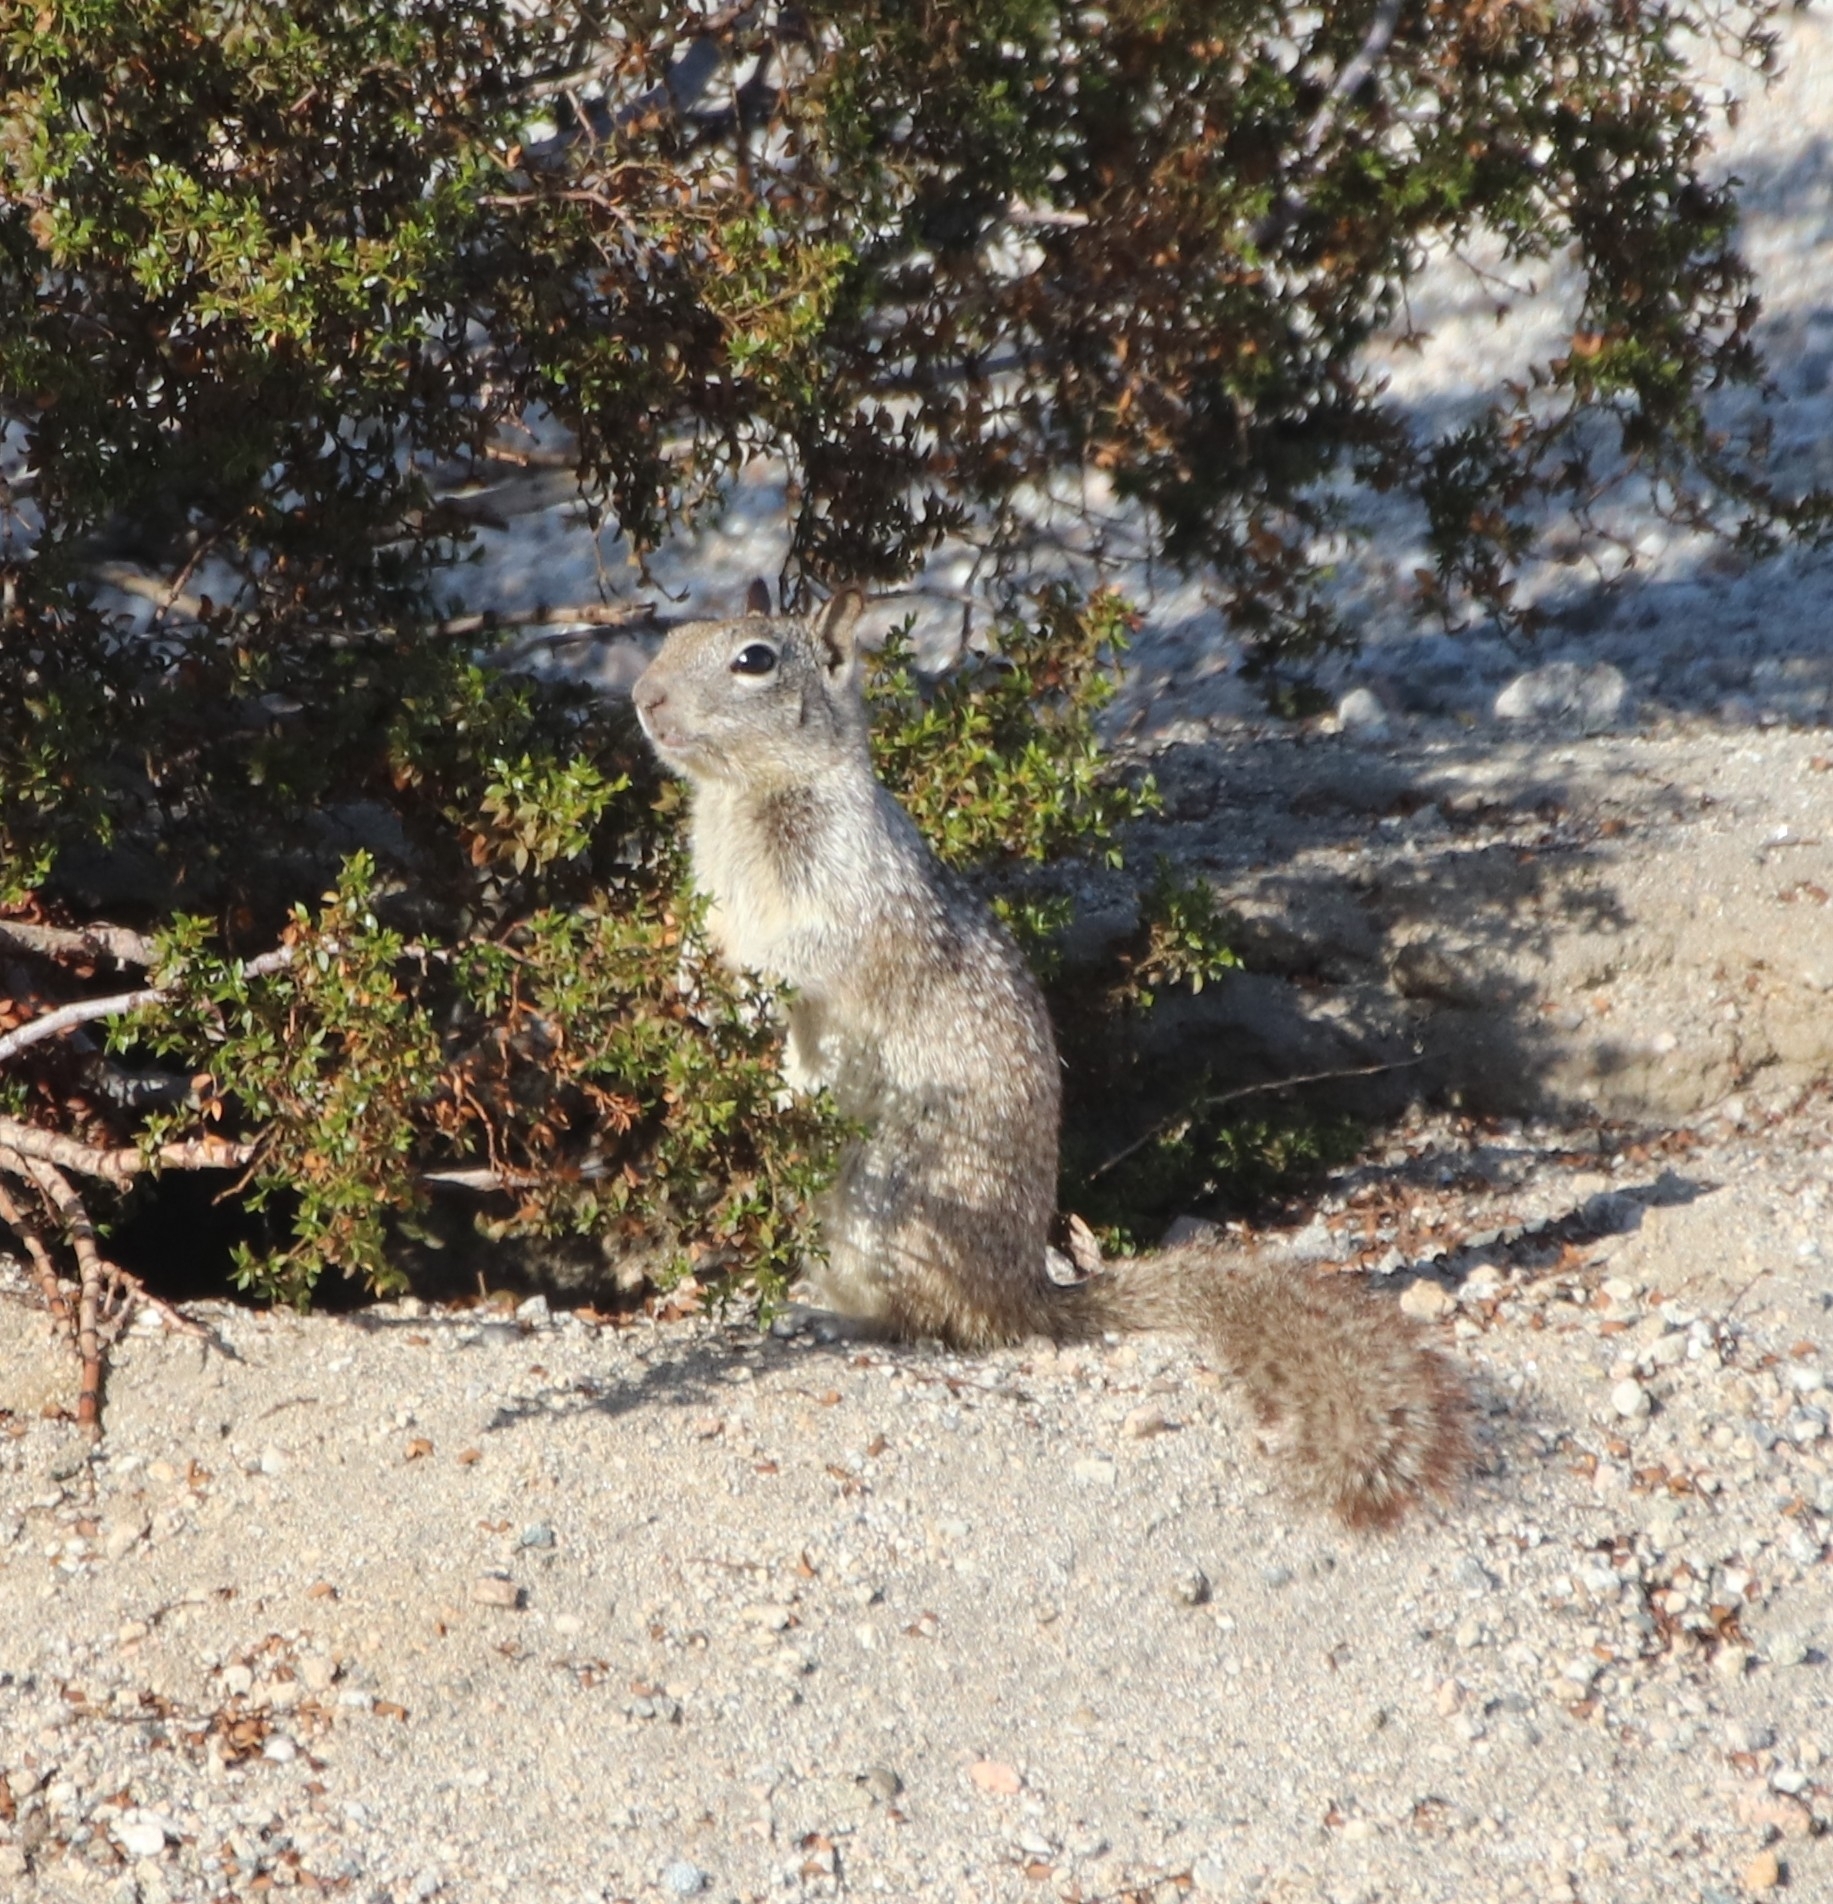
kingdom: Animalia
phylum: Chordata
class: Mammalia
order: Rodentia
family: Sciuridae
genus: Otospermophilus
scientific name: Otospermophilus beecheyi
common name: California ground squirrel
